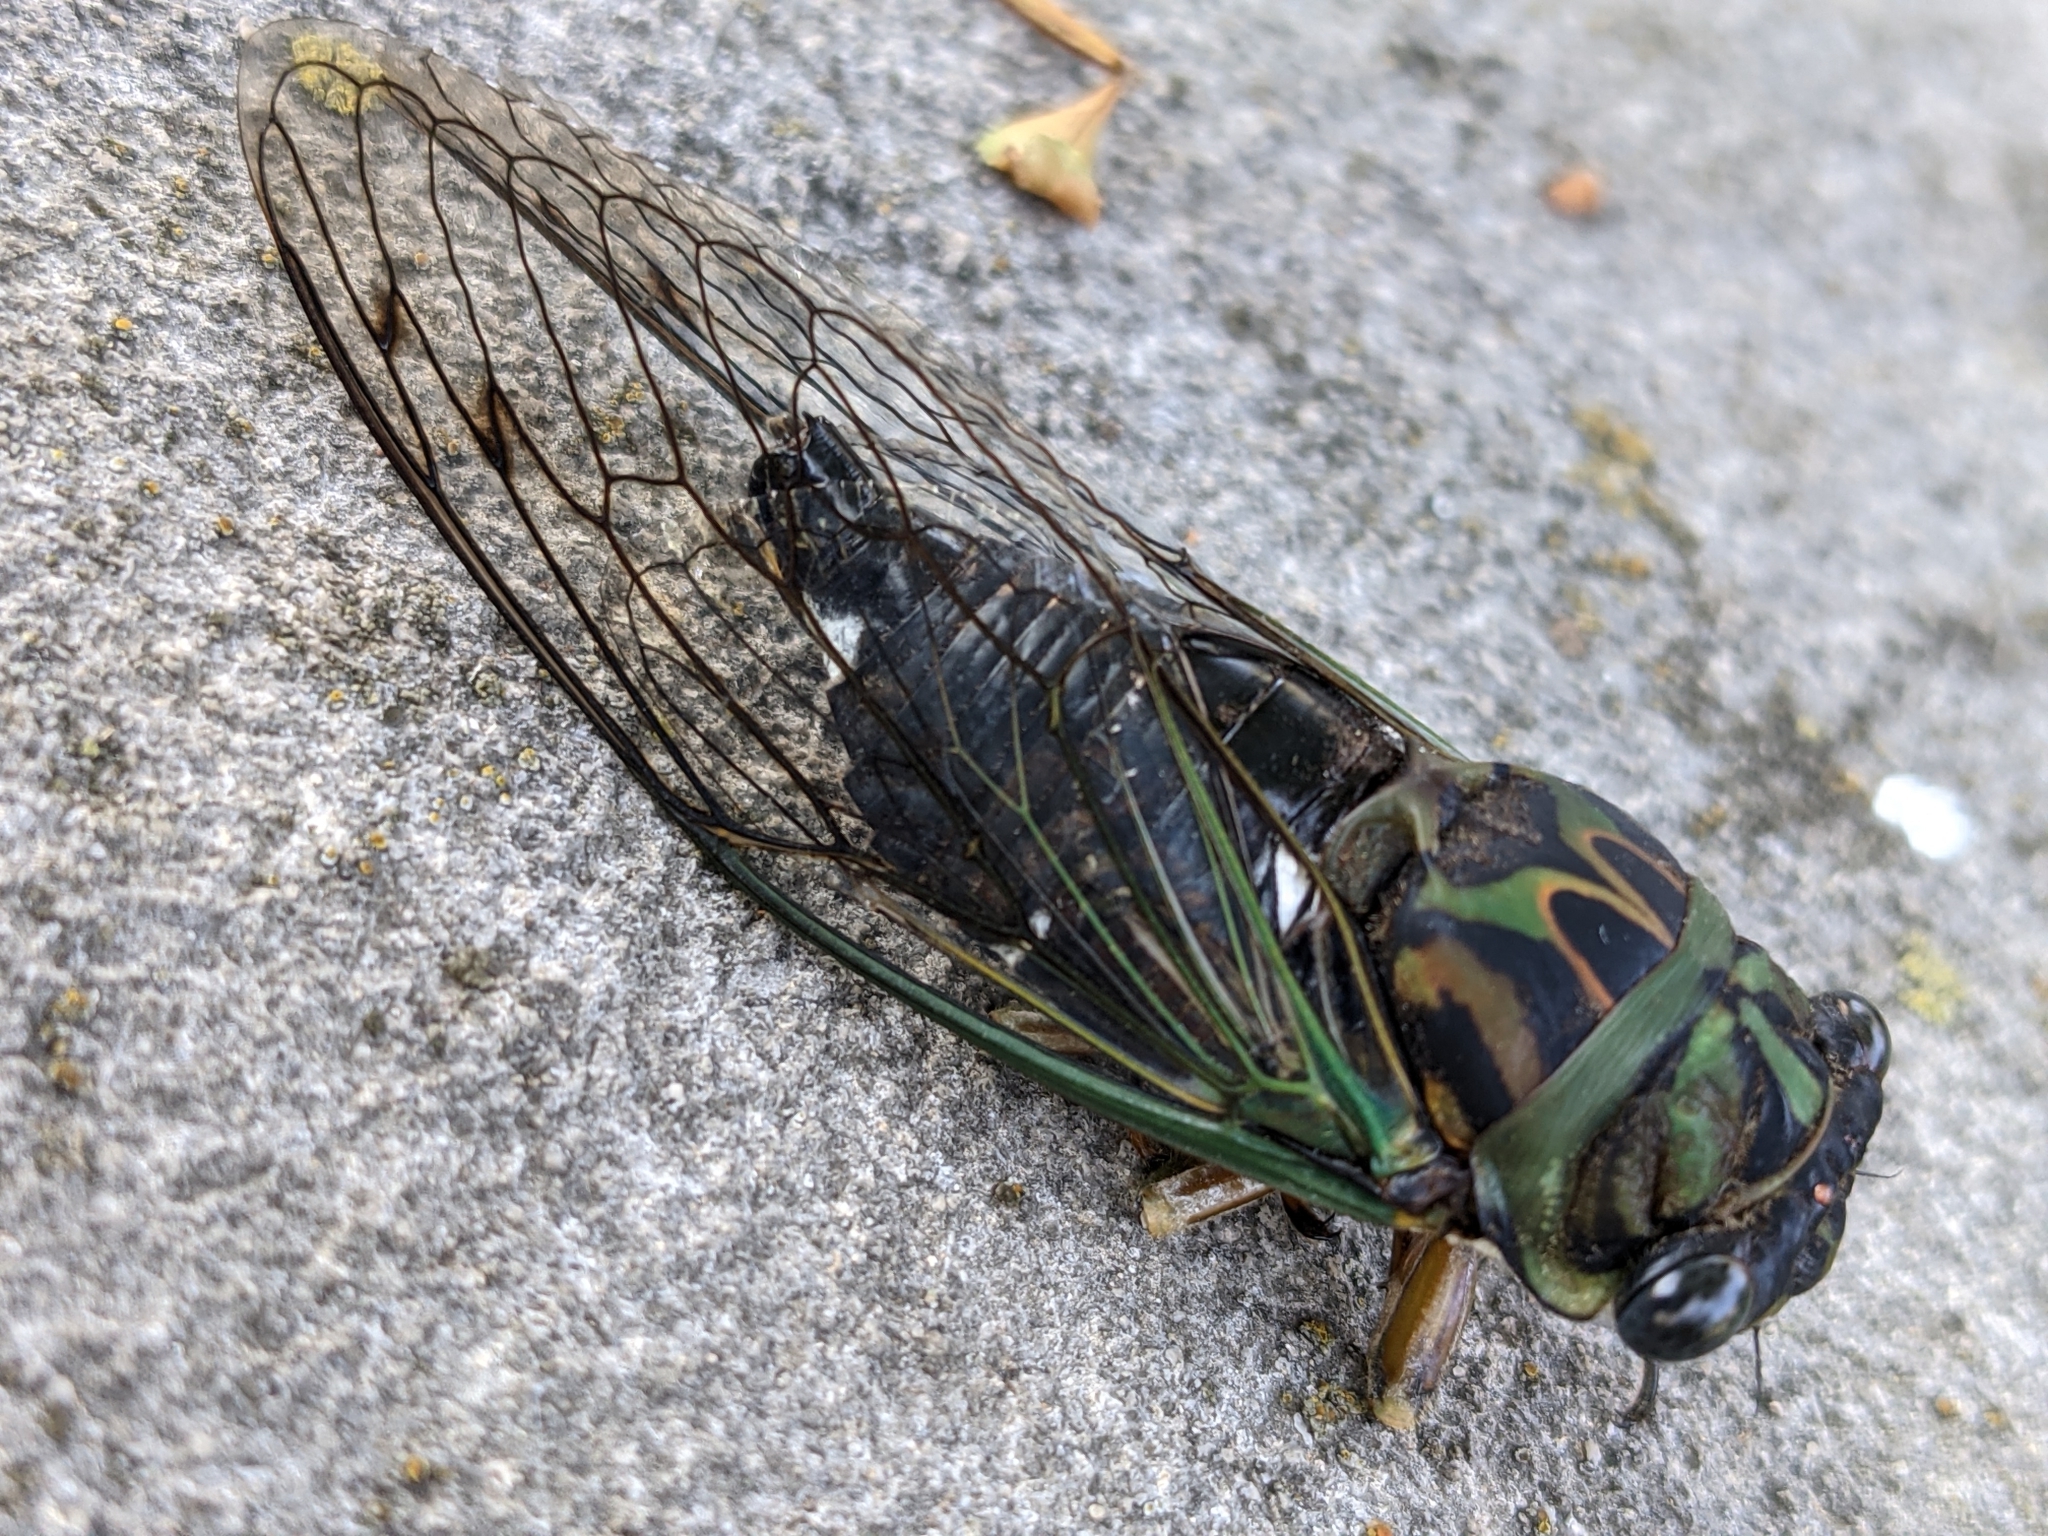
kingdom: Animalia
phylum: Arthropoda
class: Insecta
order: Hemiptera
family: Cicadidae
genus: Neotibicen
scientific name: Neotibicen linnei
